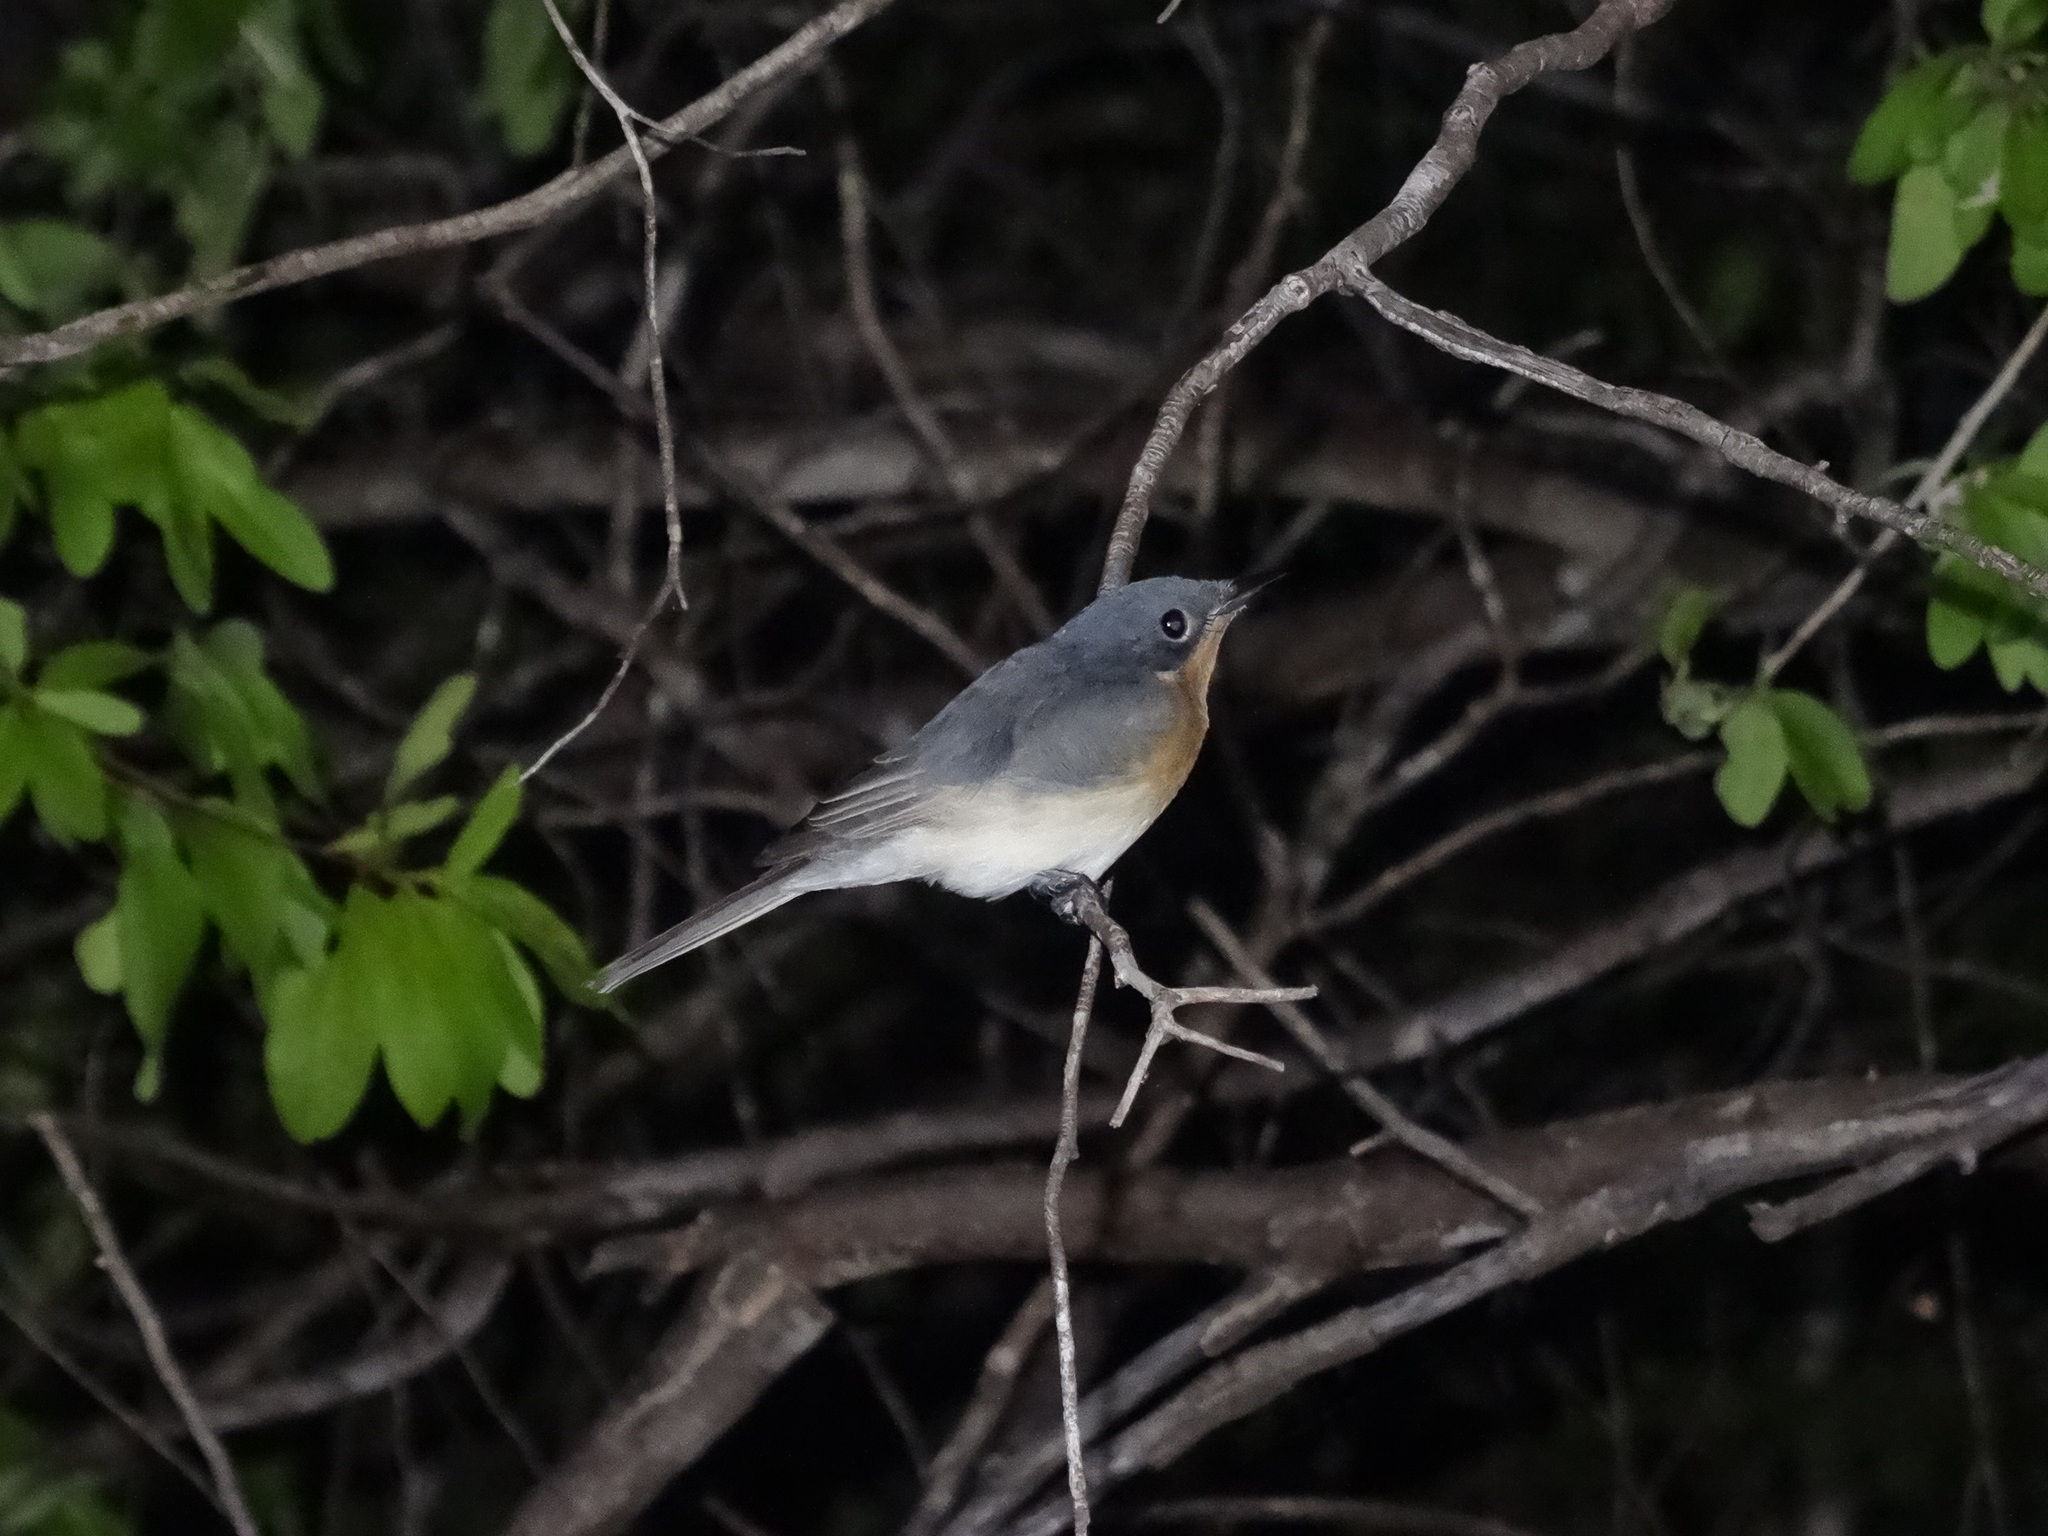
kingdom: Animalia
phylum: Chordata
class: Aves
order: Passeriformes
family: Monarchidae
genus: Myiagra
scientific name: Myiagra rubecula
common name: Leaden flycatcher
